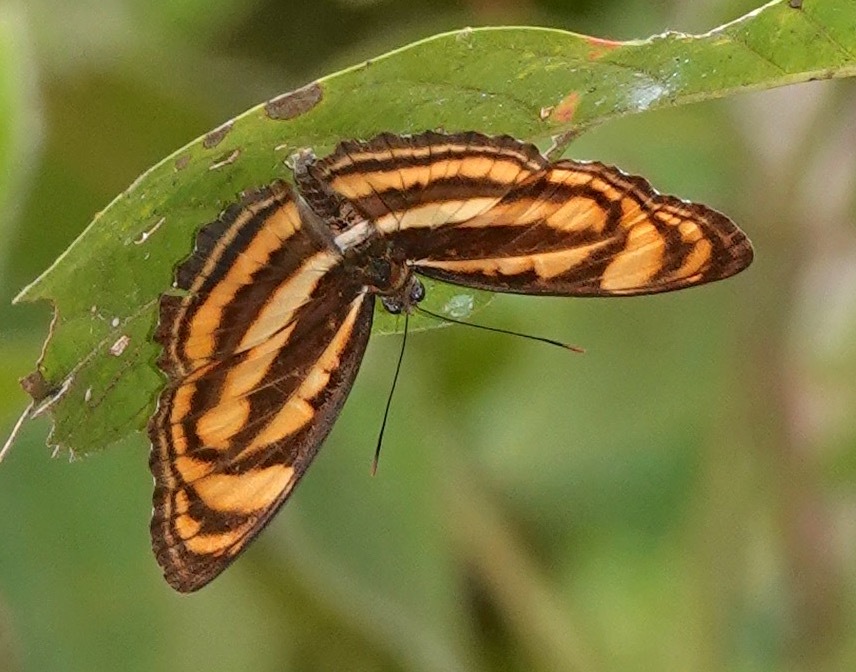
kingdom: Animalia
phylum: Arthropoda
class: Insecta
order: Lepidoptera
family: Nymphalidae
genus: Parathyma
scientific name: Parathyma reta
